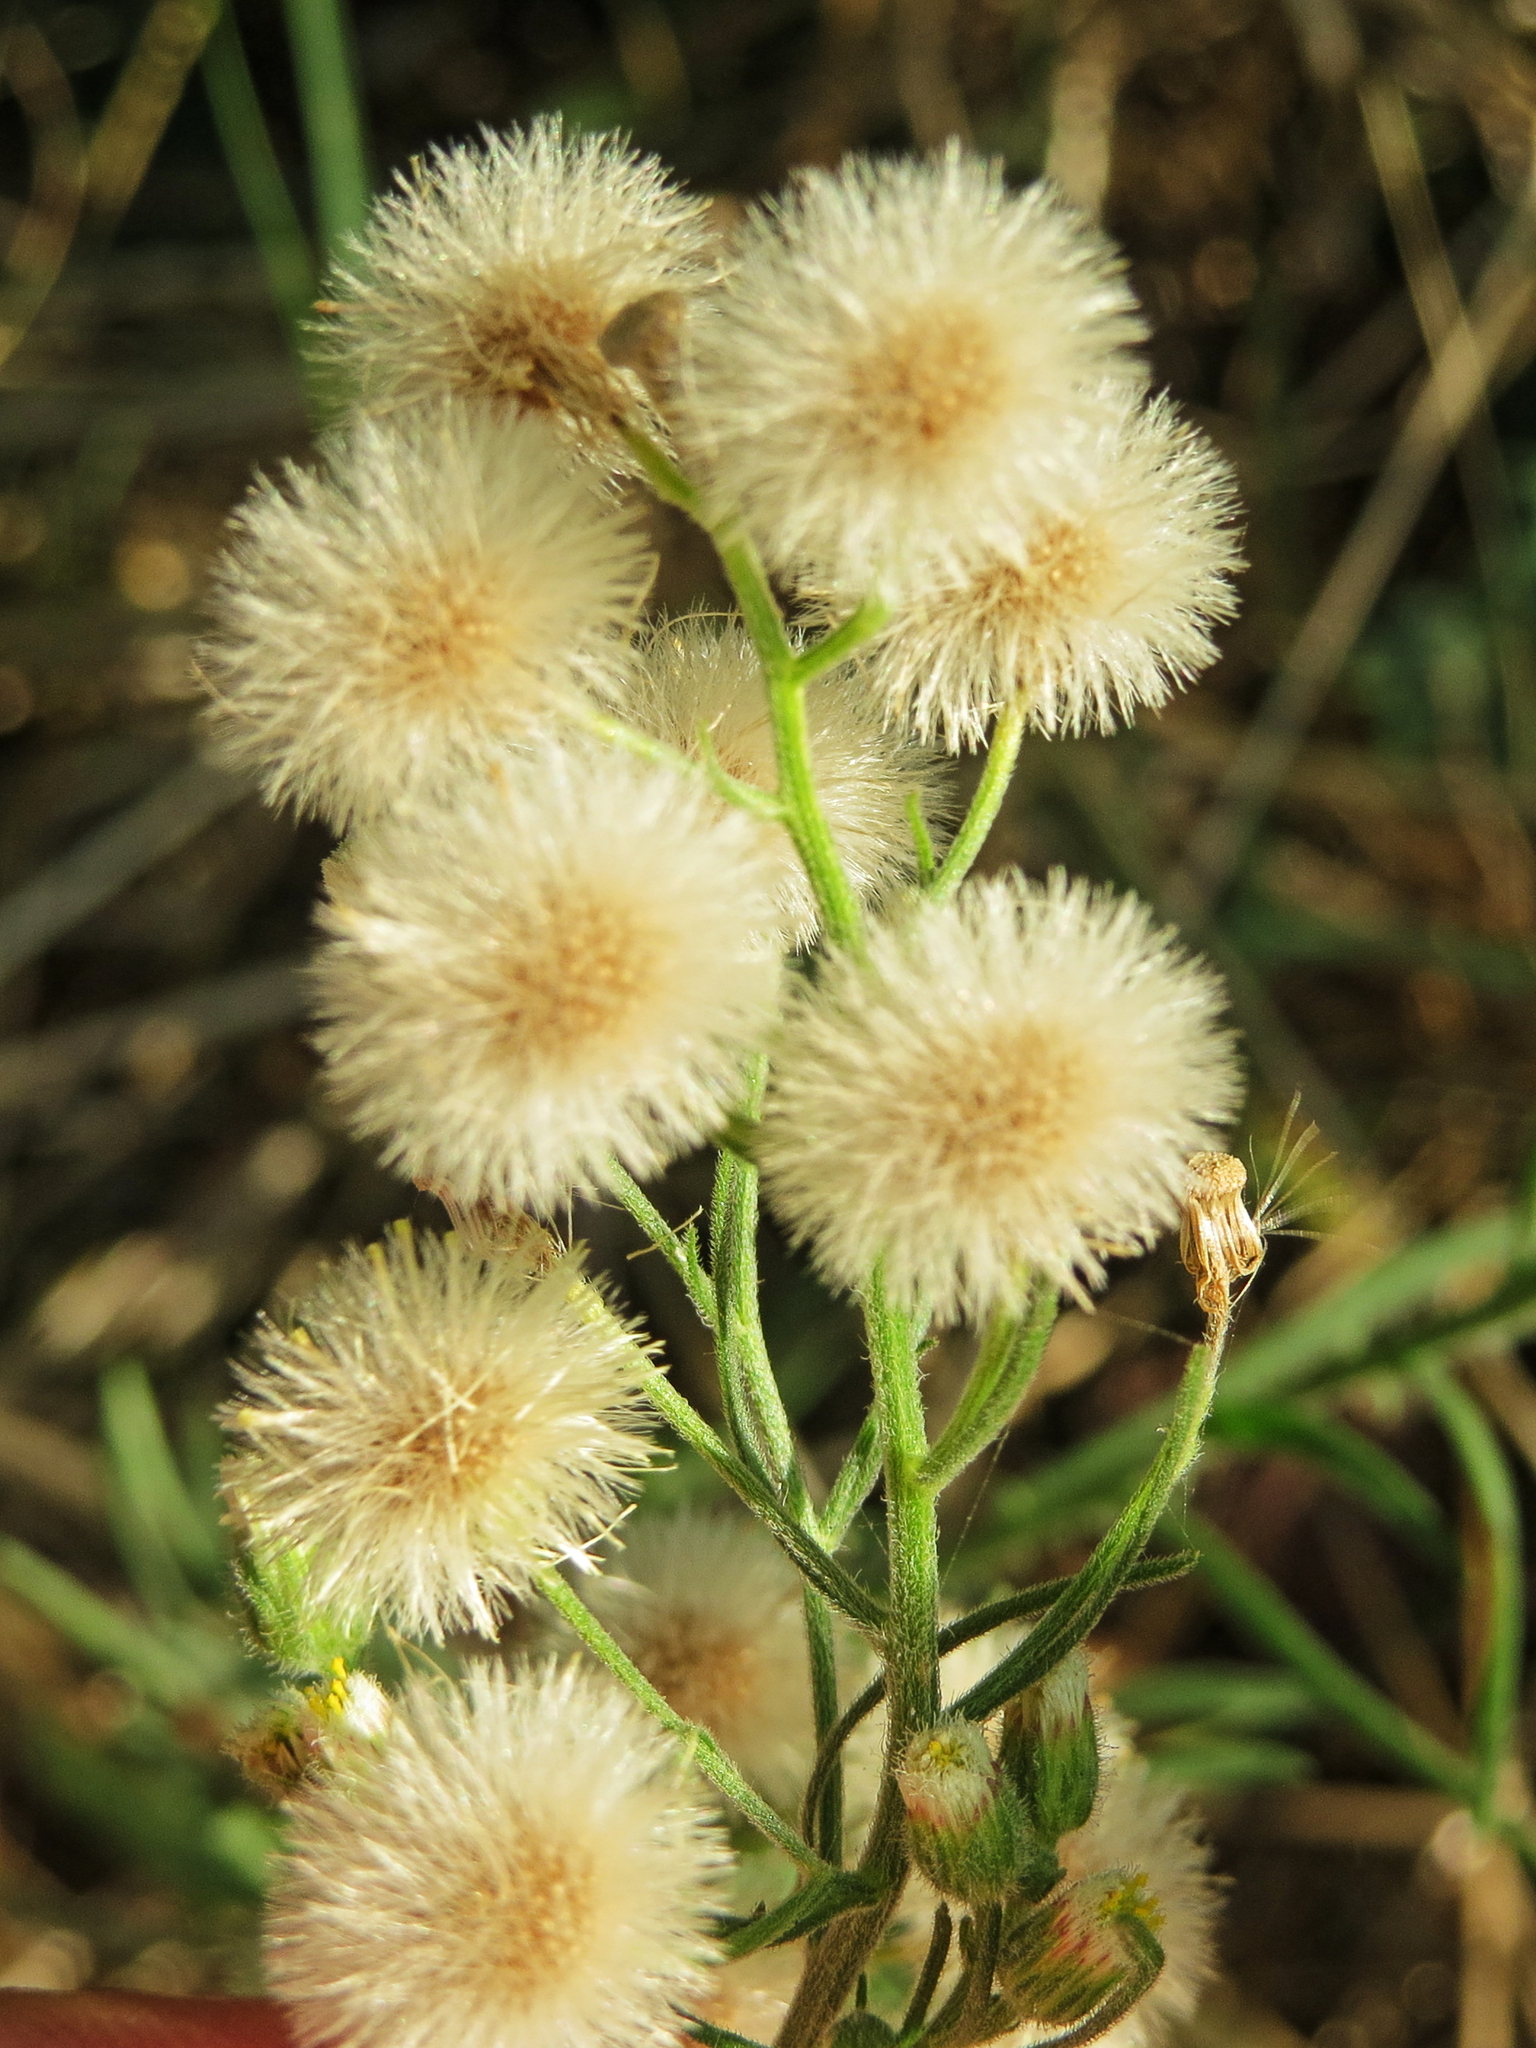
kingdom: Plantae
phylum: Tracheophyta
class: Magnoliopsida
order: Asterales
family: Asteraceae
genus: Erigeron
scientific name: Erigeron bonariensis
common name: Argentine fleabane
